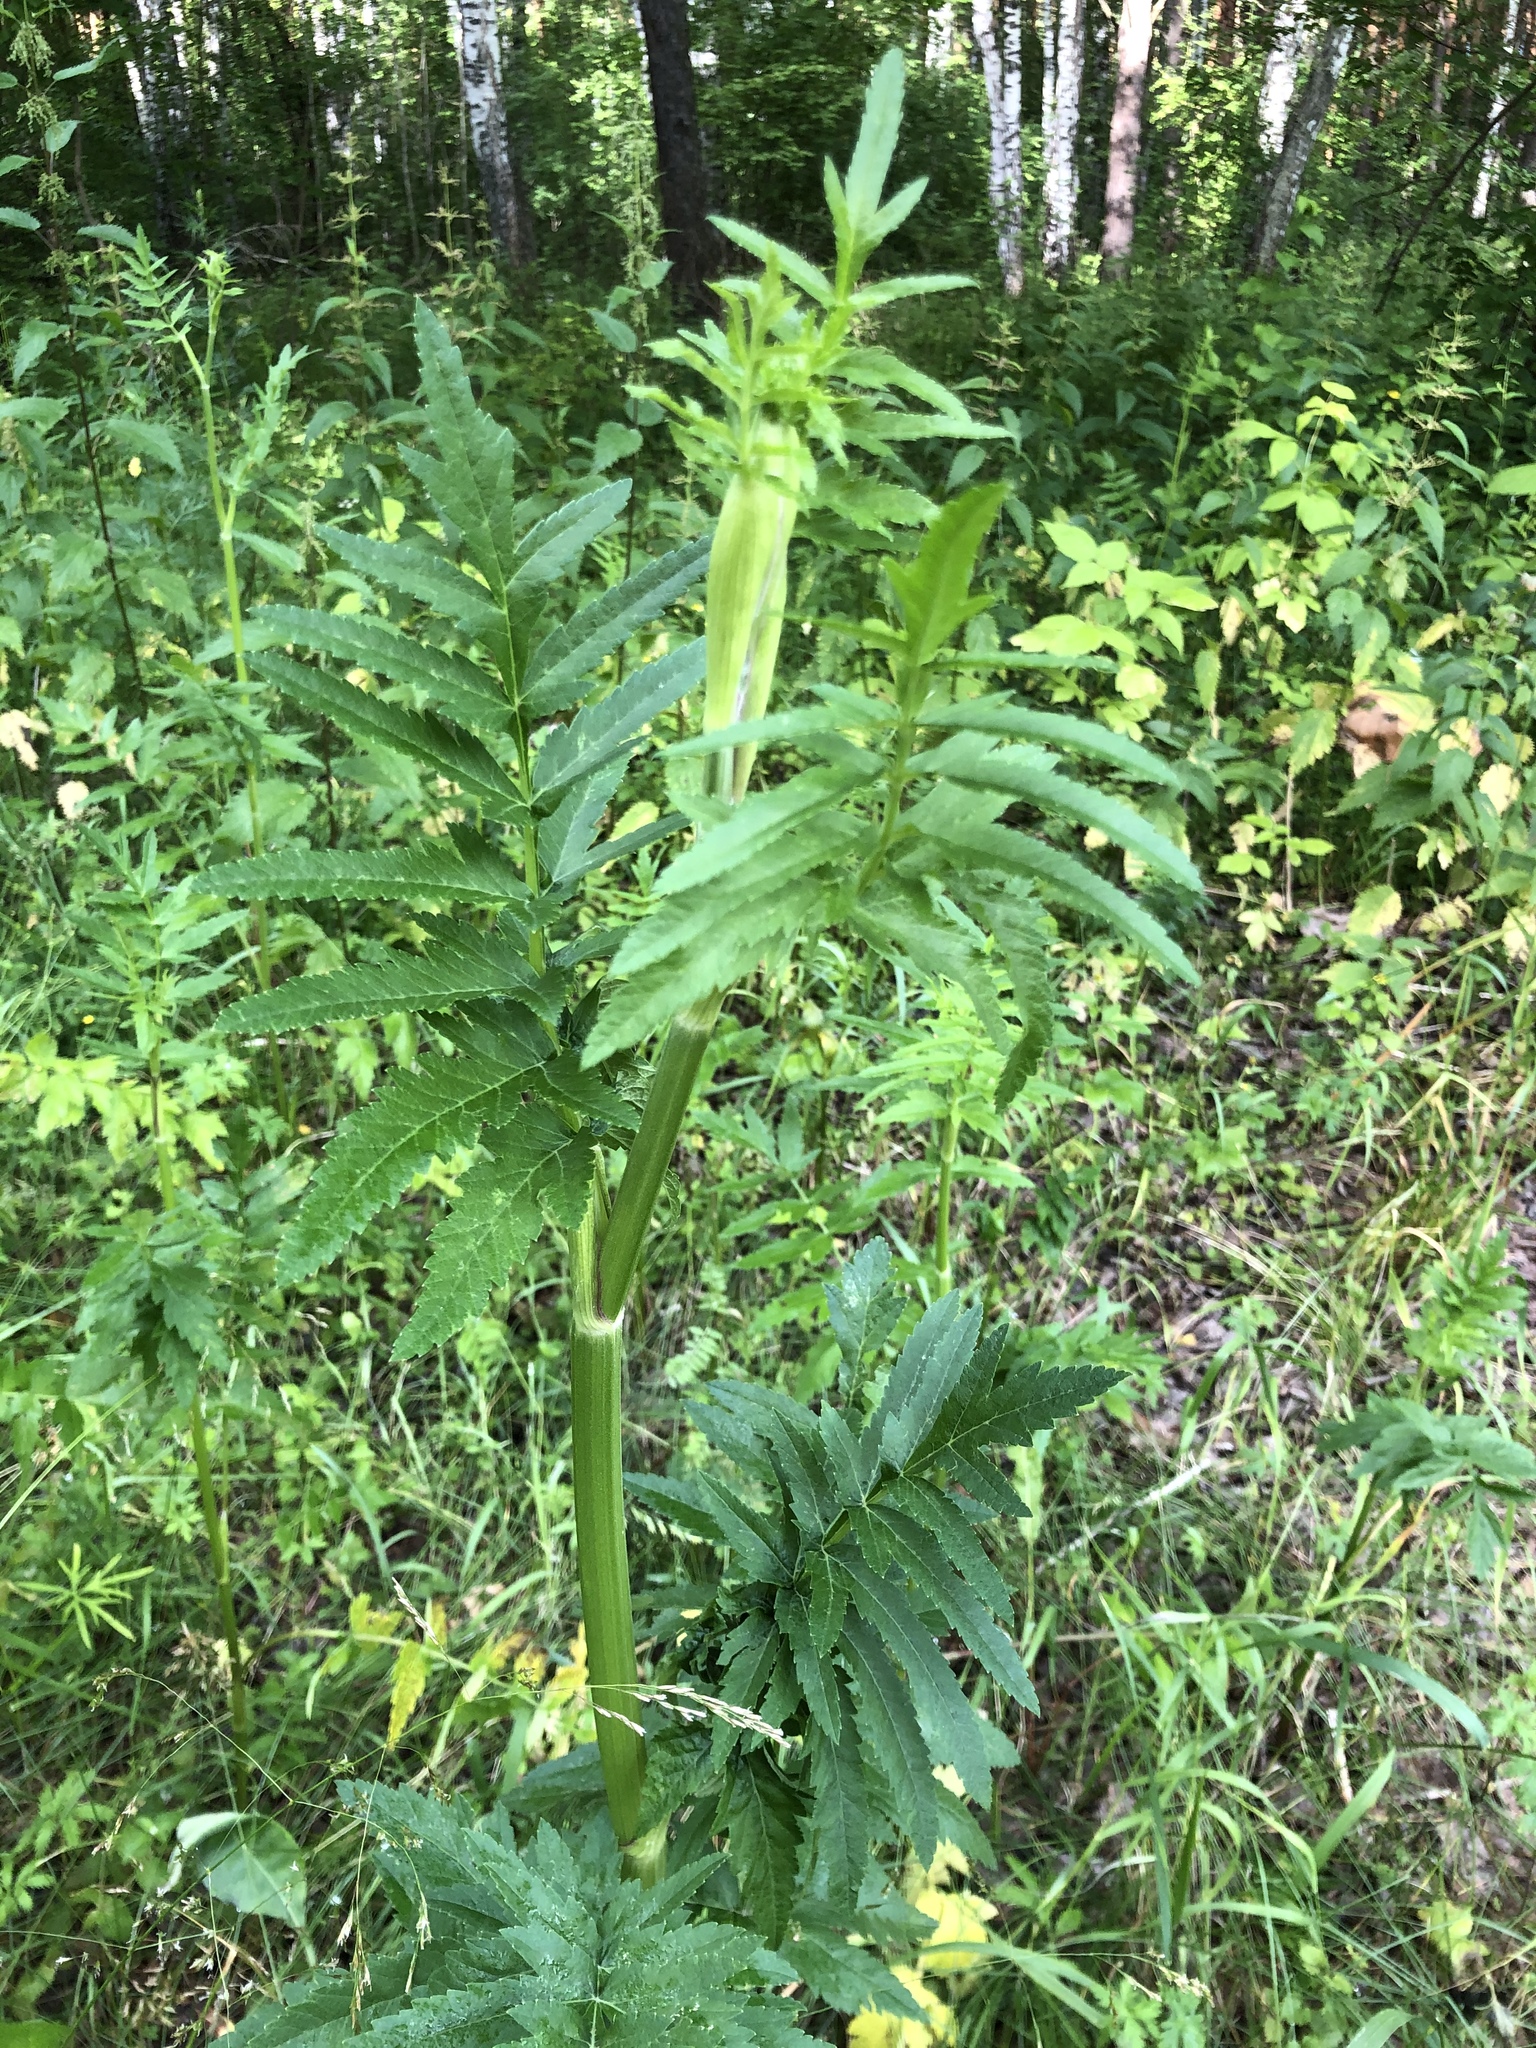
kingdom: Plantae
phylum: Tracheophyta
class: Magnoliopsida
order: Apiales
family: Apiaceae
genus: Pastinaca
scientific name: Pastinaca sativa
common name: Wild parsnip
